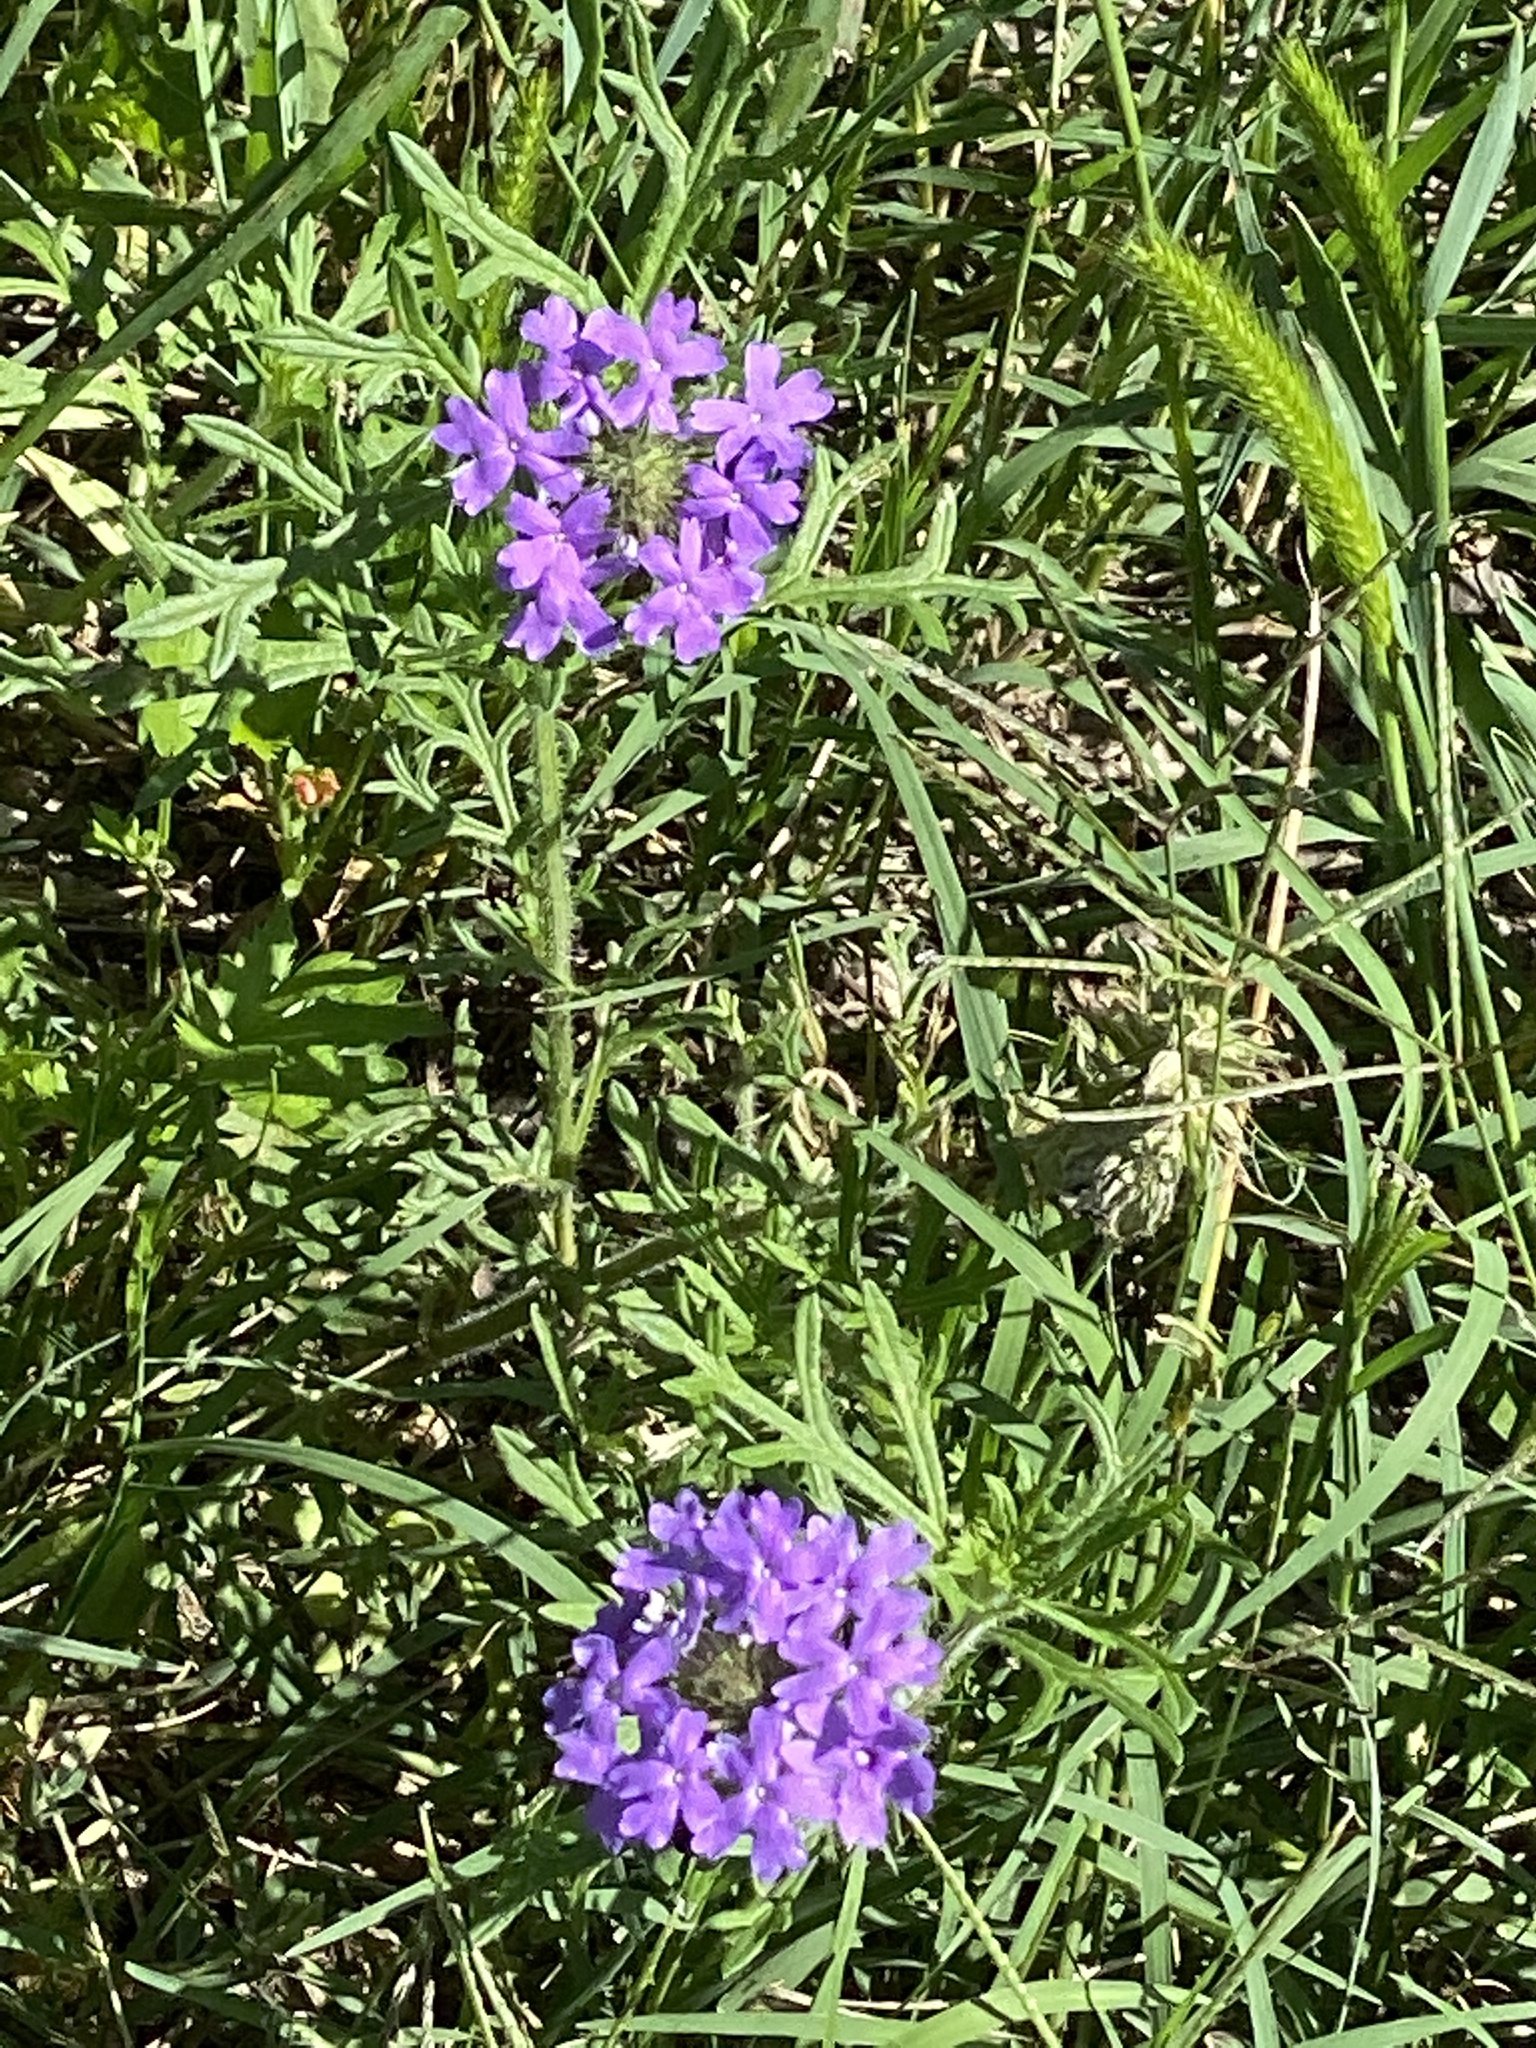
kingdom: Plantae
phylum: Tracheophyta
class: Magnoliopsida
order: Lamiales
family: Verbenaceae
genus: Verbena
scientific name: Verbena bipinnatifida
